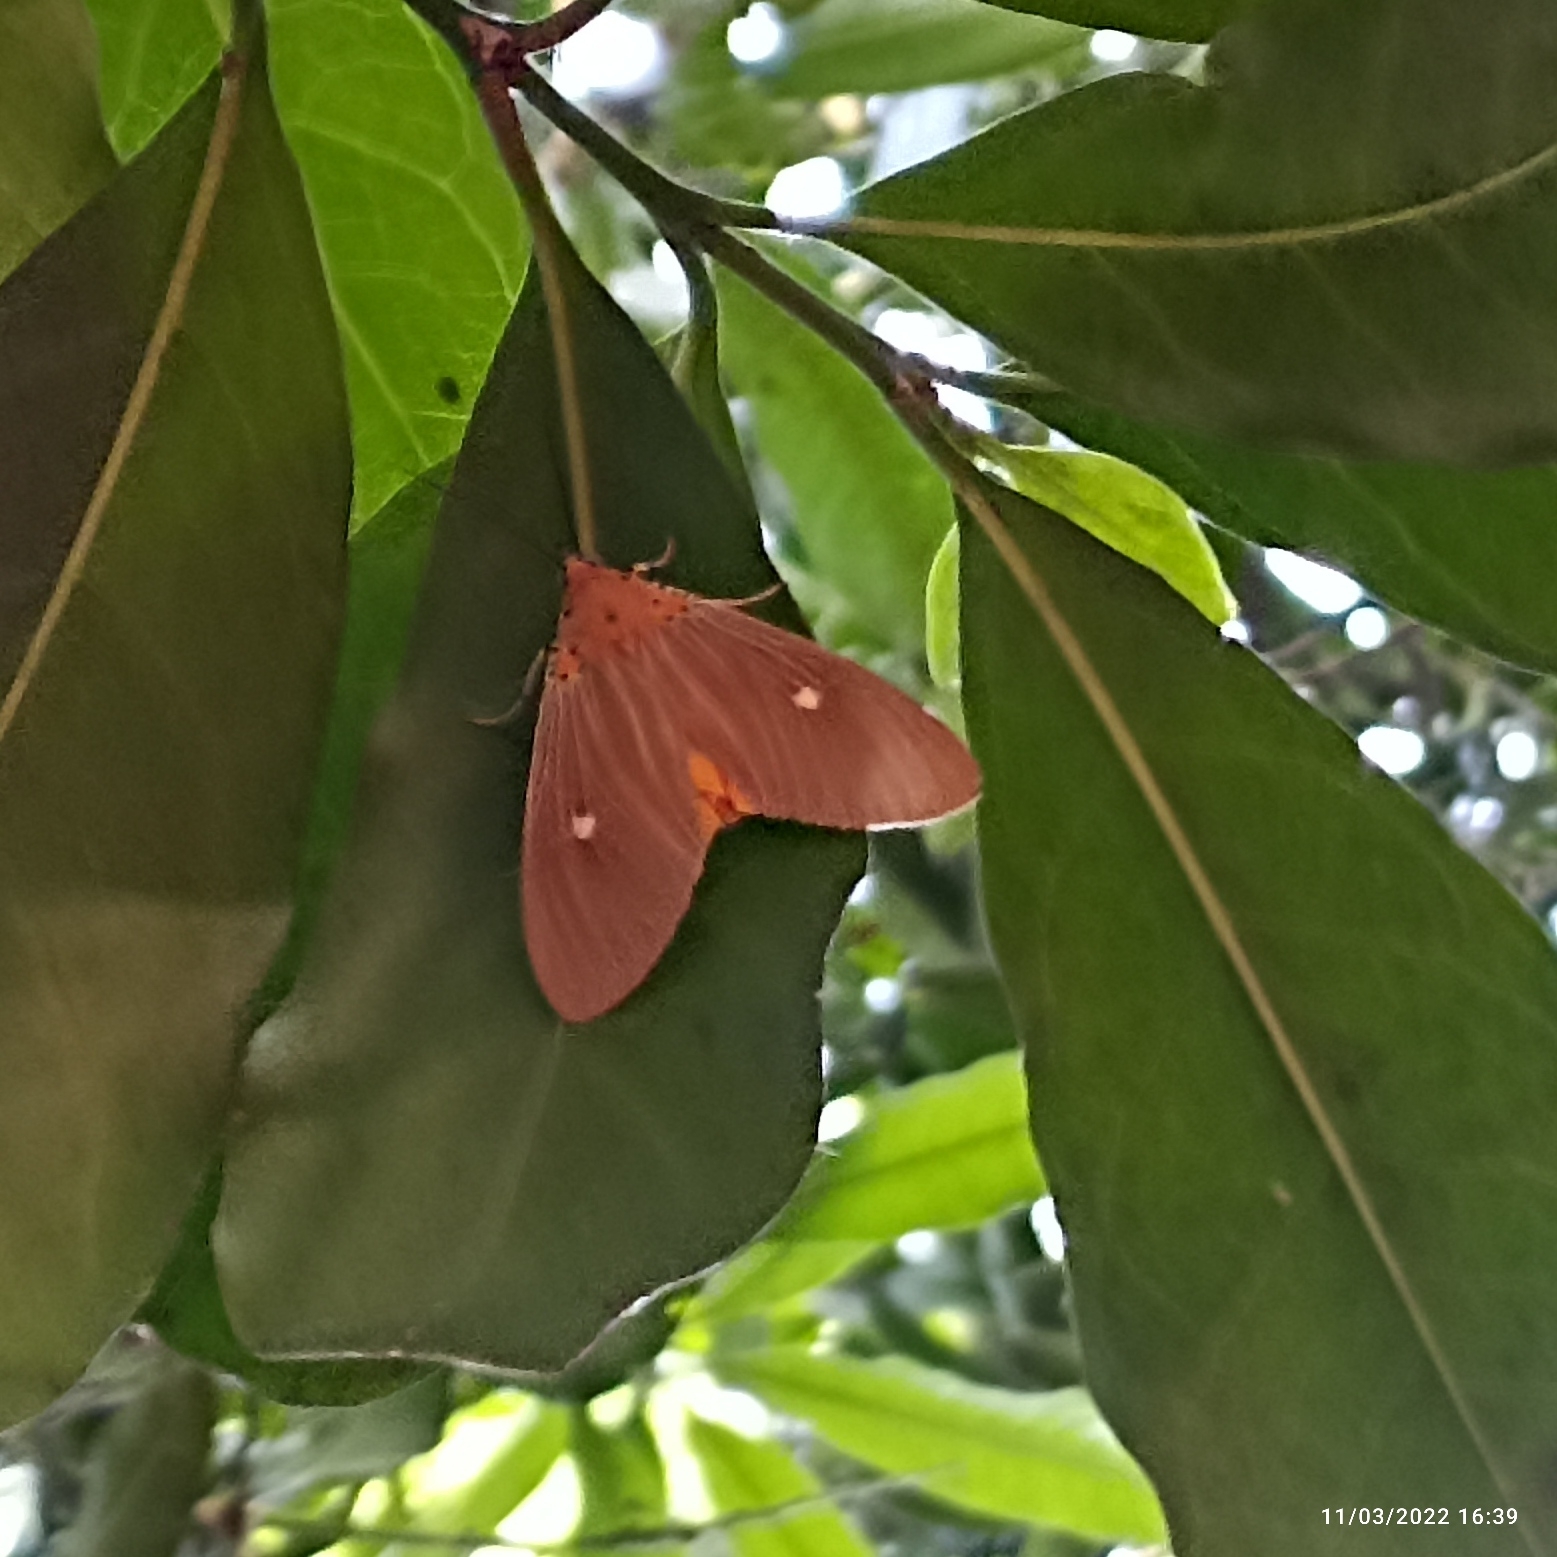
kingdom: Animalia
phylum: Arthropoda
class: Insecta
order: Lepidoptera
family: Erebidae
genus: Asota
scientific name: Asota sericea
